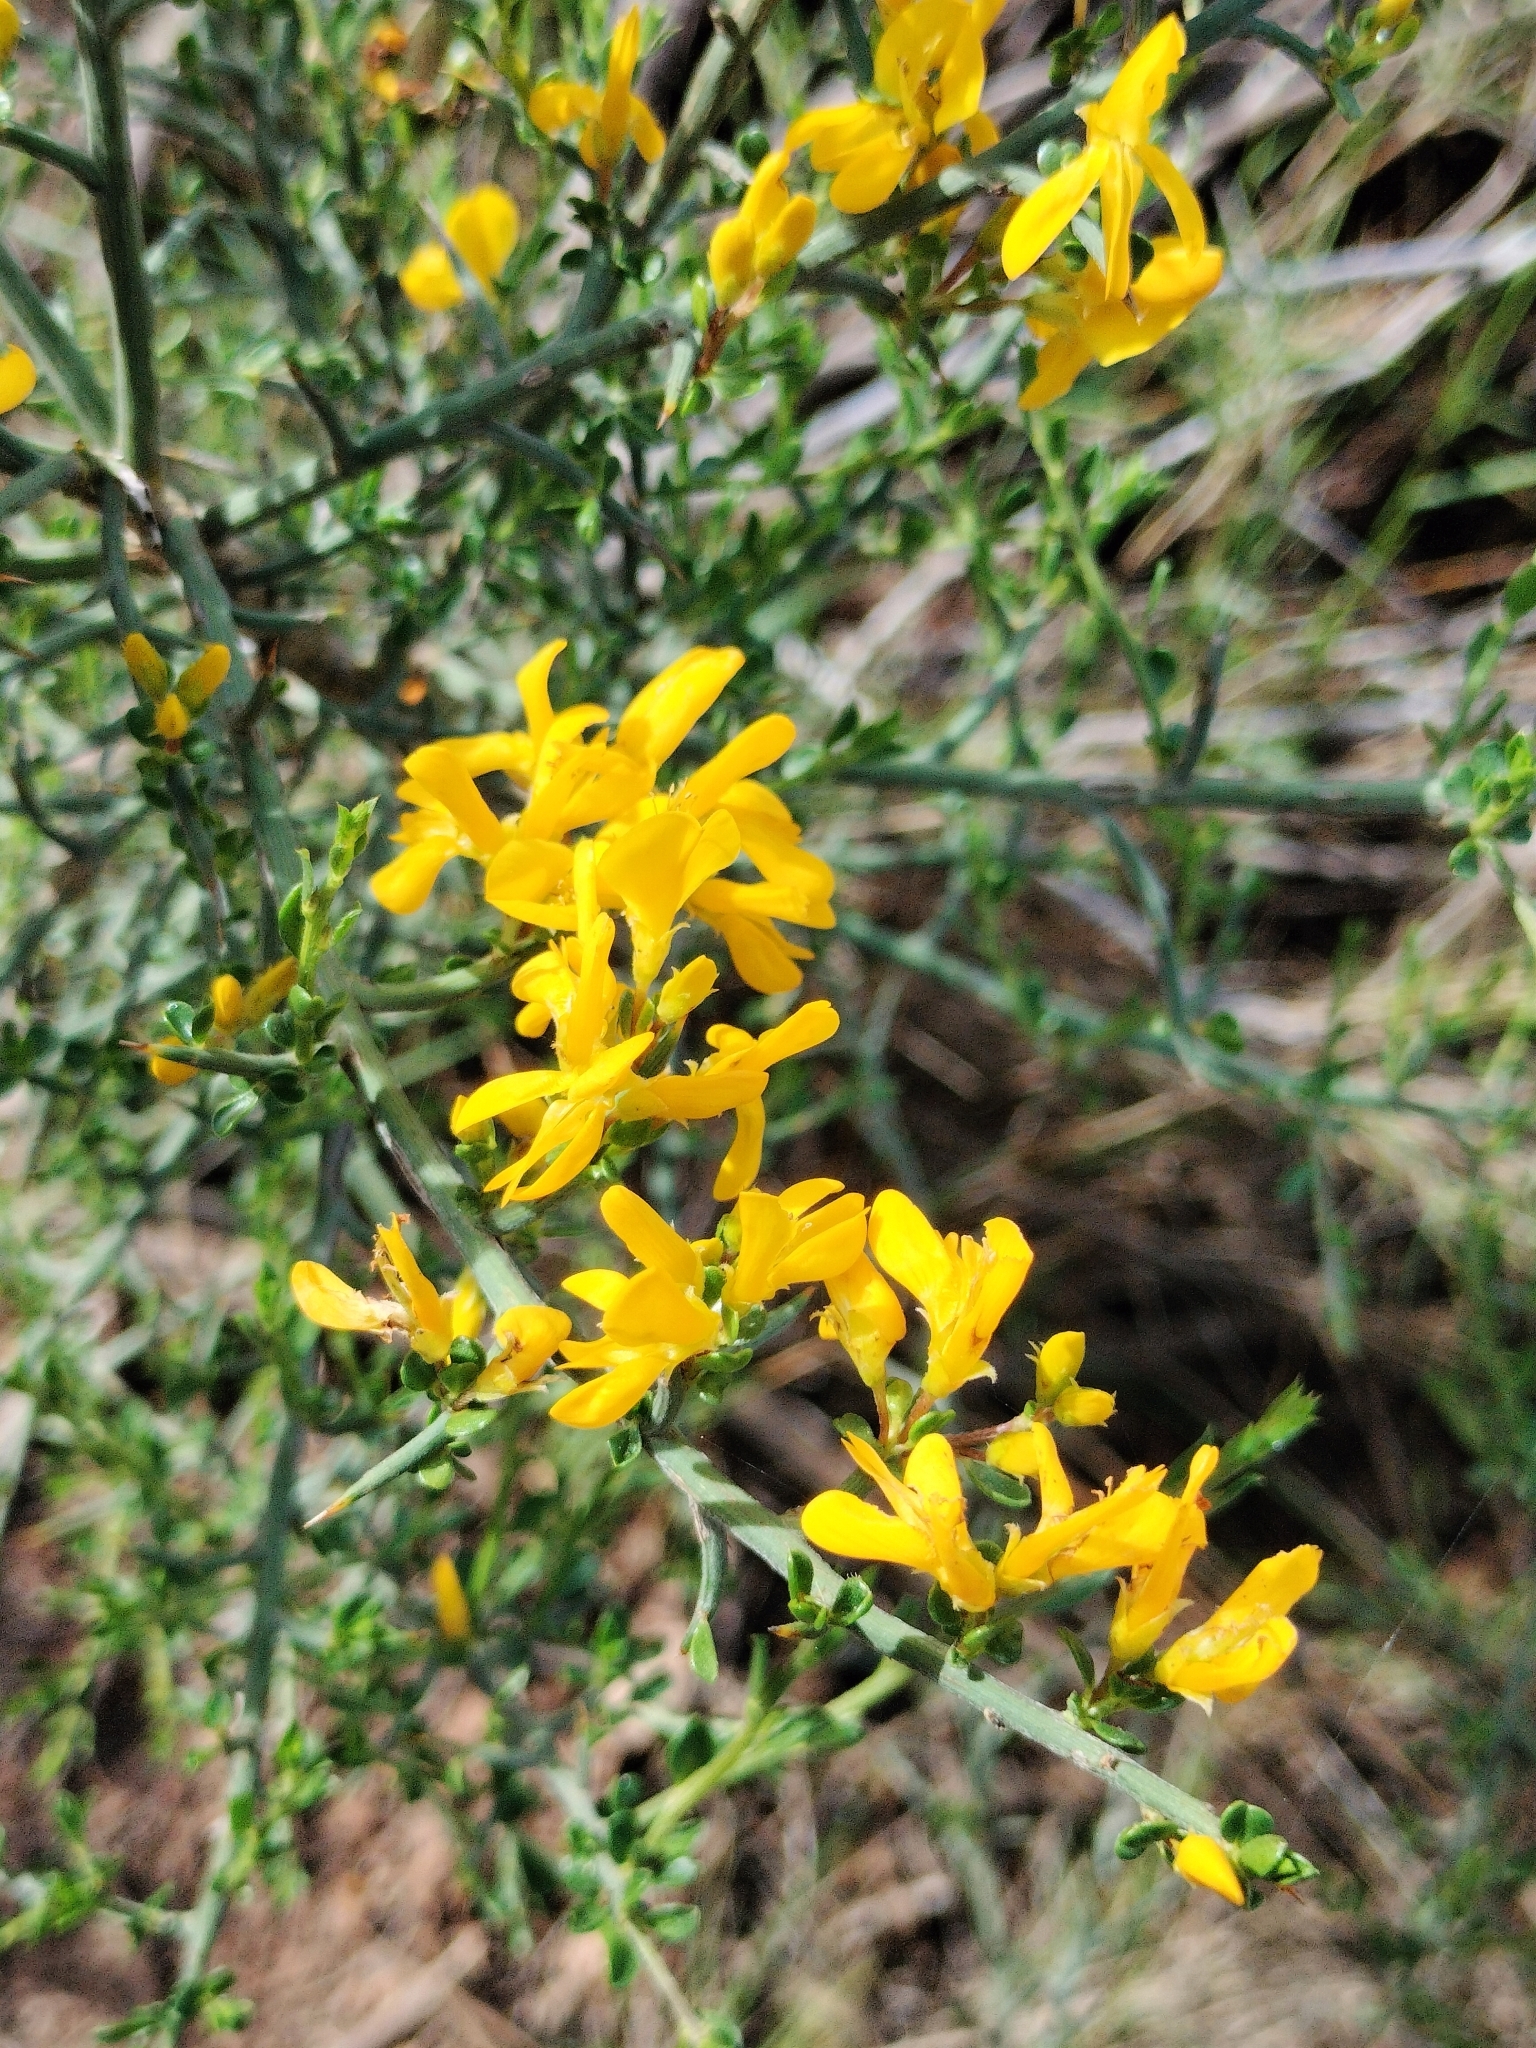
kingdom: Plantae
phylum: Tracheophyta
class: Magnoliopsida
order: Fabales
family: Fabaceae
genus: Genista
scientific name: Genista scorpius
